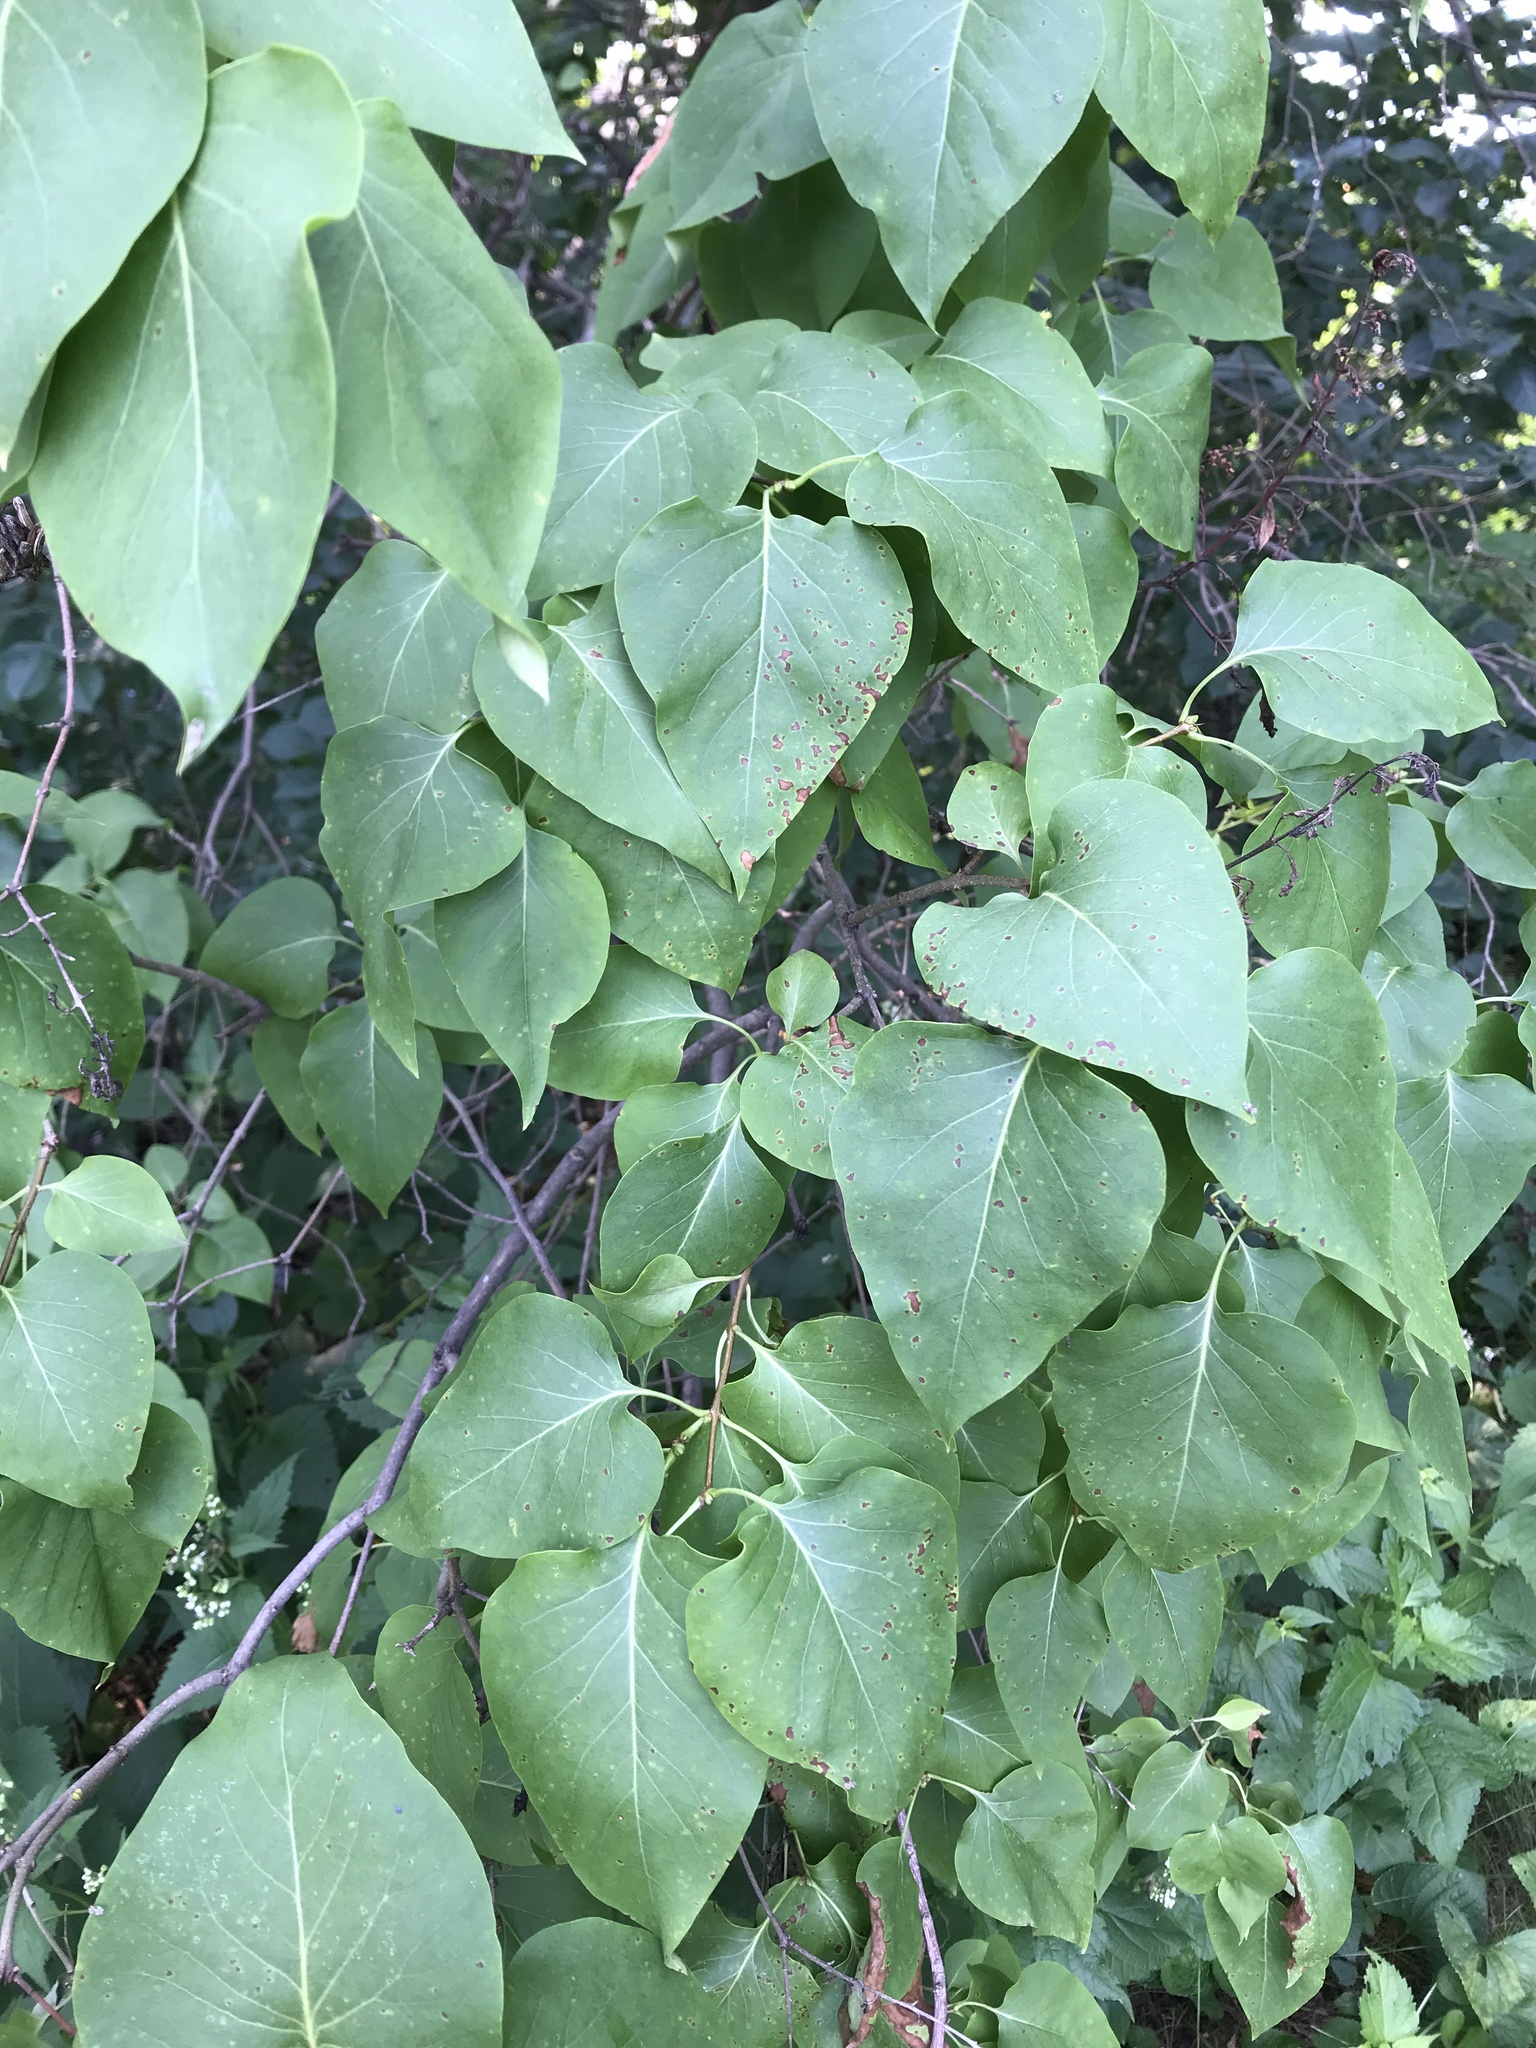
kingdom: Plantae
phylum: Tracheophyta
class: Magnoliopsida
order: Lamiales
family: Oleaceae
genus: Syringa
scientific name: Syringa vulgaris
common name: Common lilac
